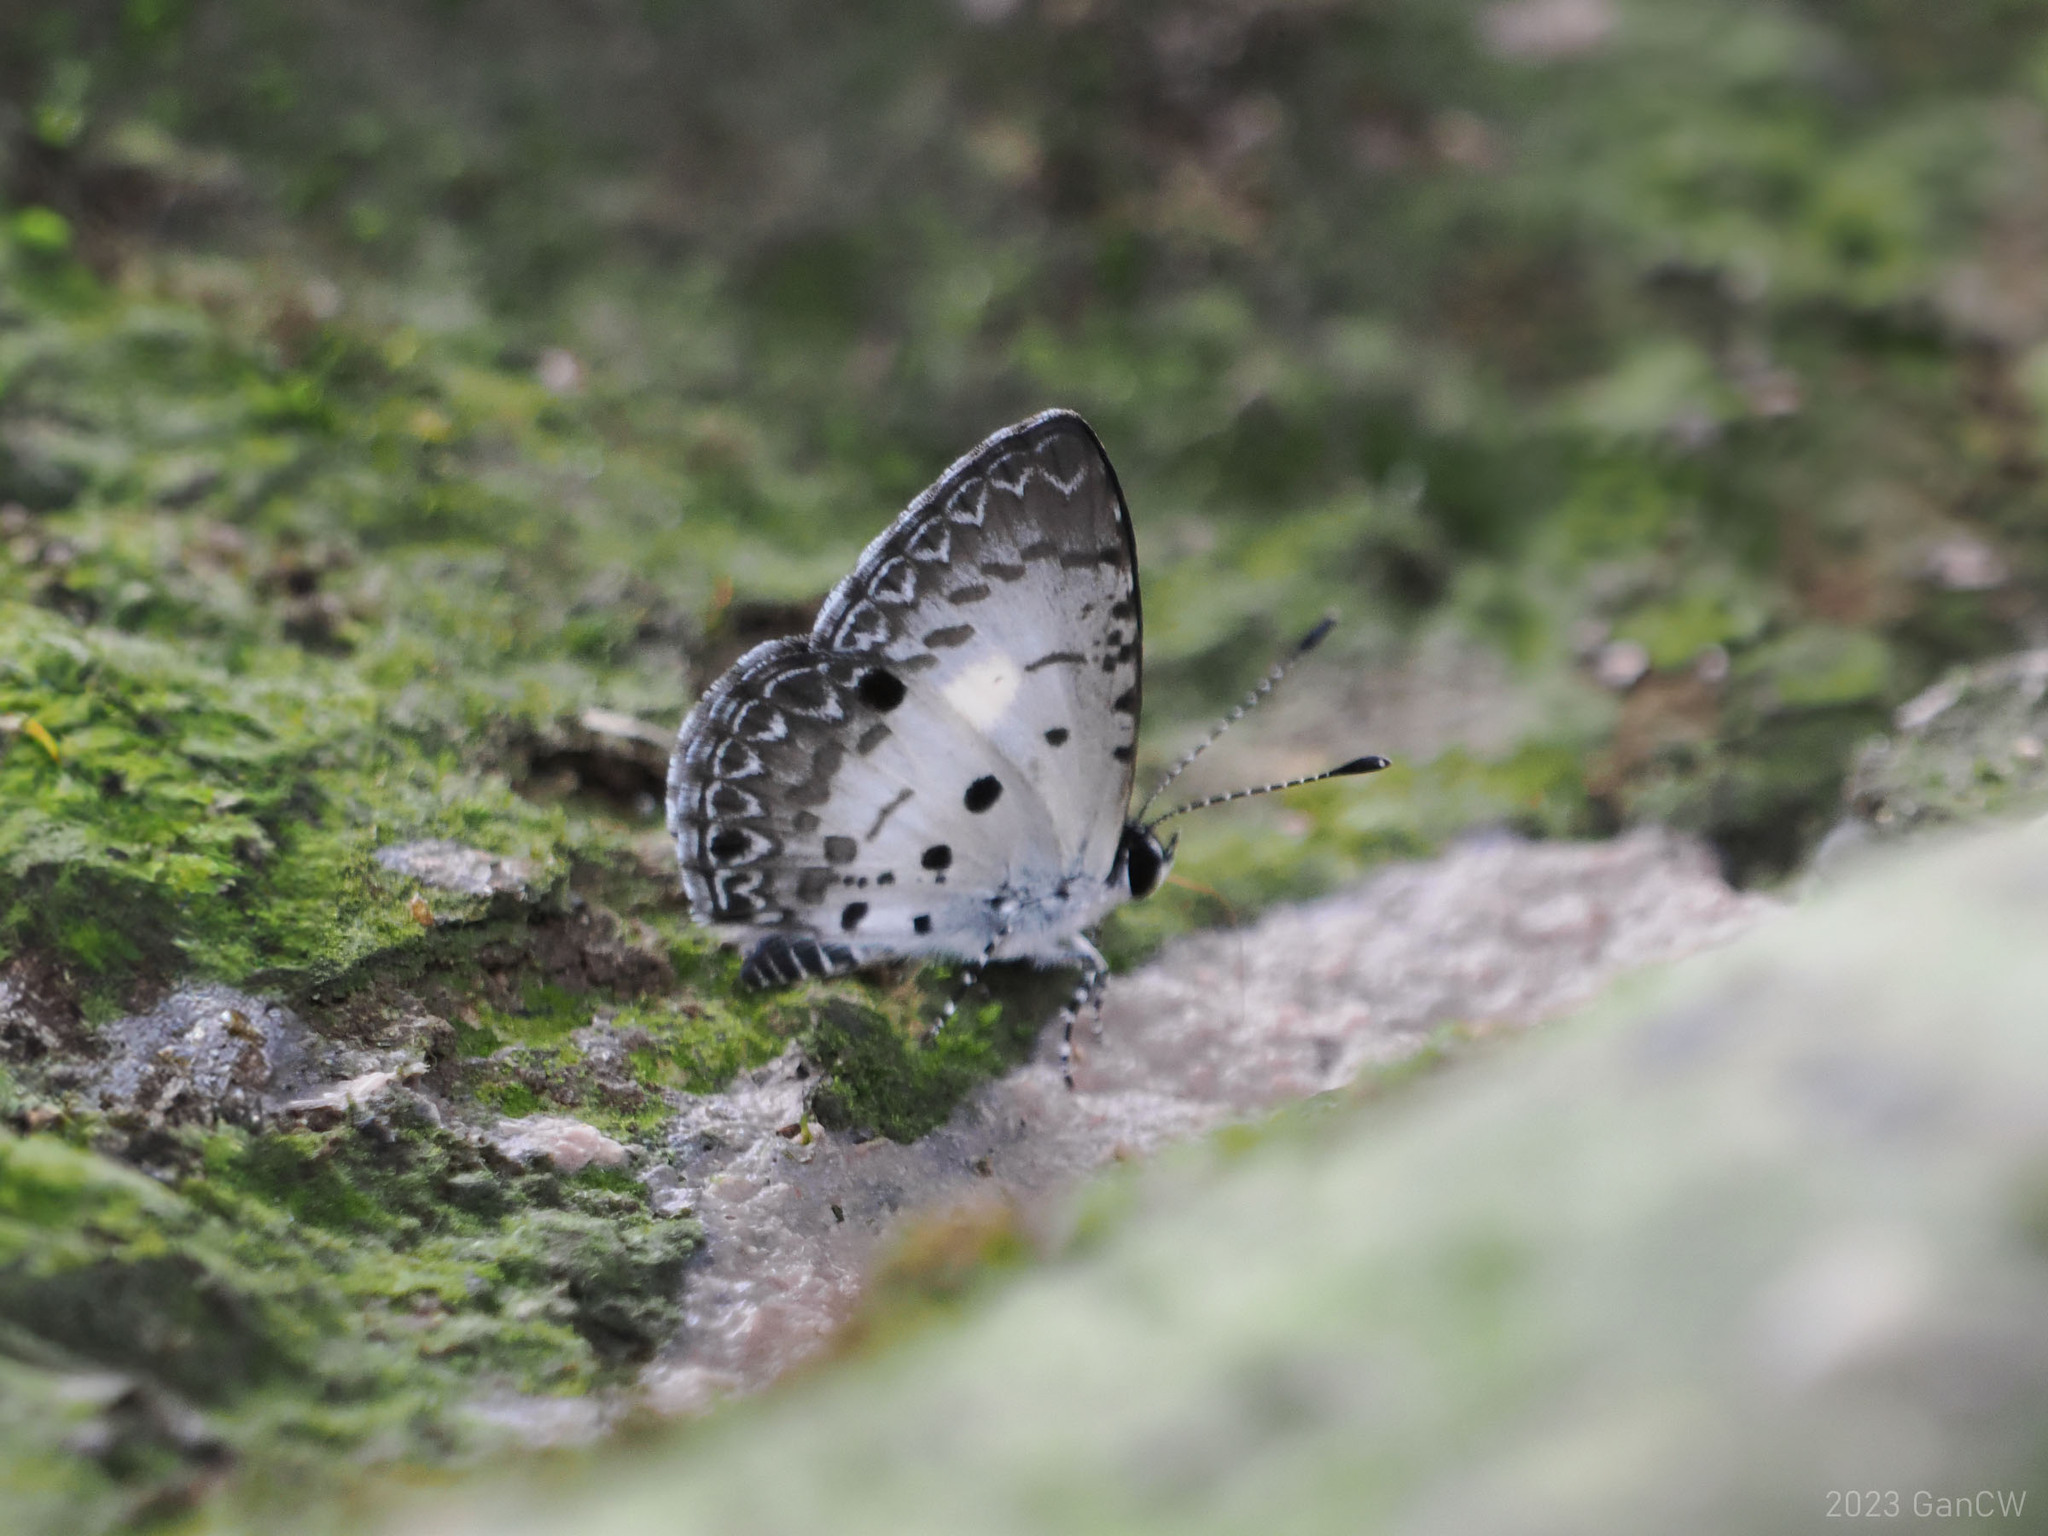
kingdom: Animalia
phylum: Arthropoda
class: Insecta
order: Lepidoptera
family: Lycaenidae
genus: Megisba
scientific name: Megisba strongyle
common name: Small pied blue
